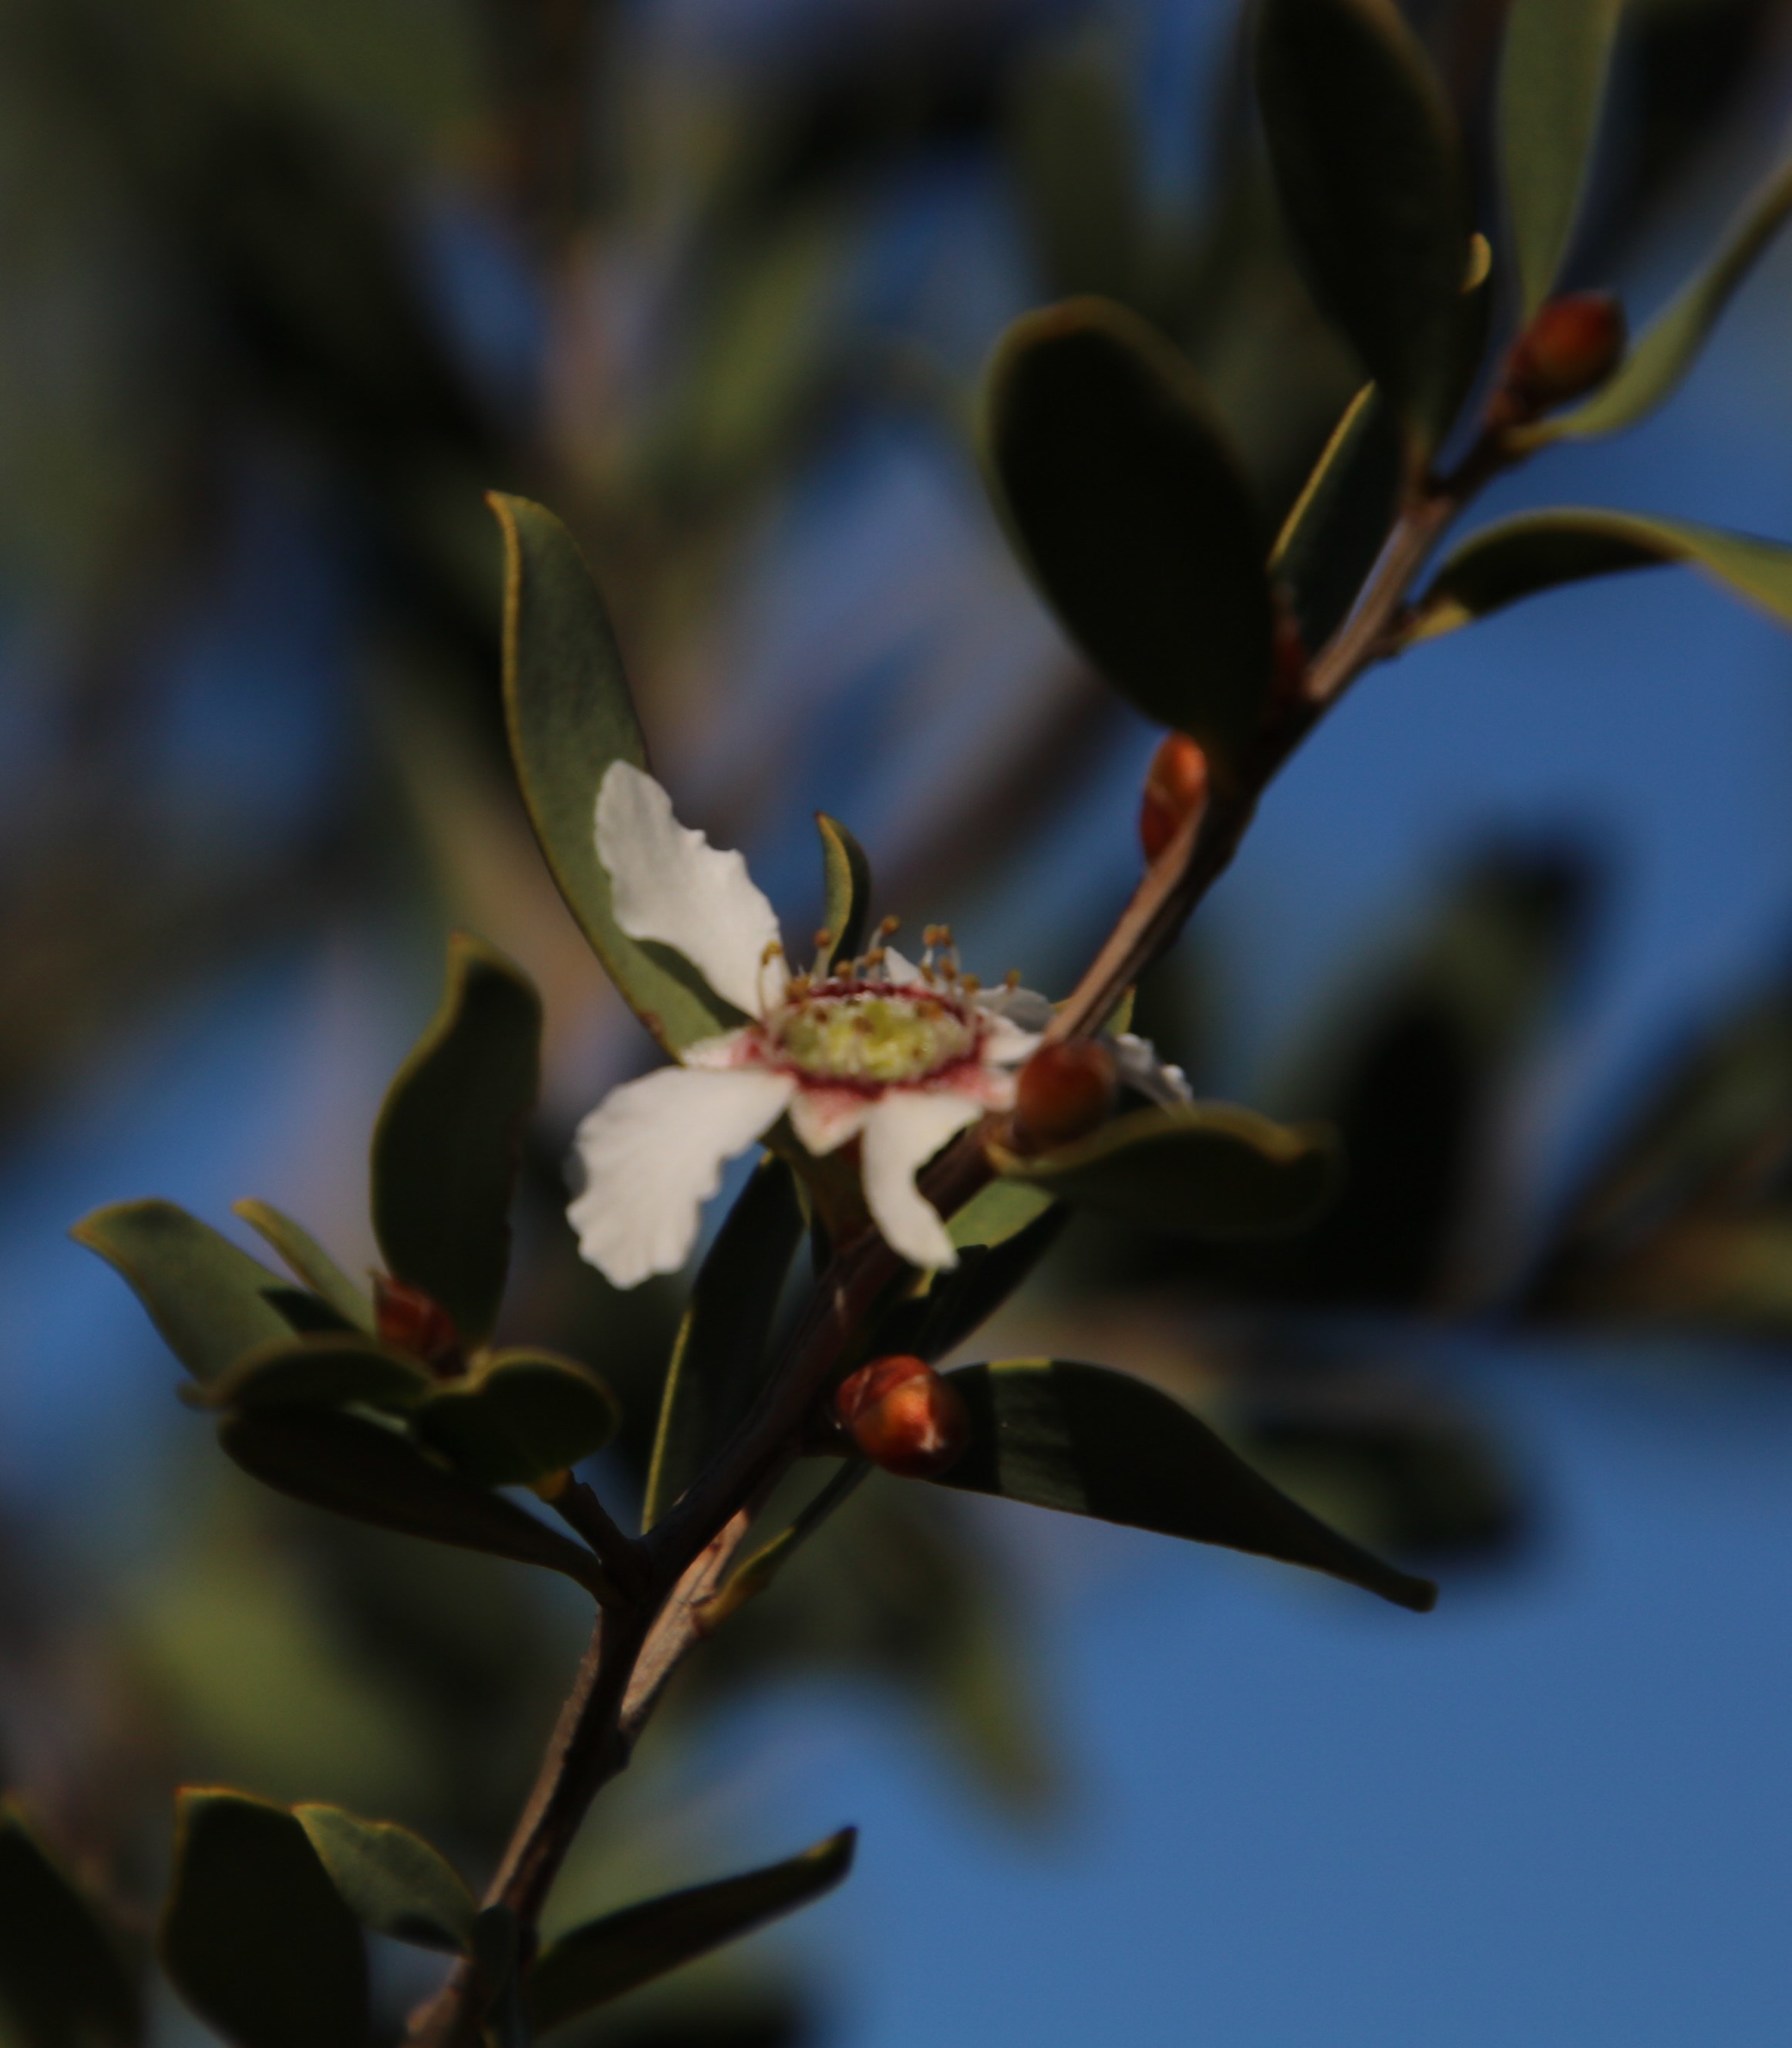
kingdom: Plantae
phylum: Tracheophyta
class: Magnoliopsida
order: Myrtales
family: Myrtaceae
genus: Leptospermum
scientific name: Leptospermum laevigatum
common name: Australian teatree
